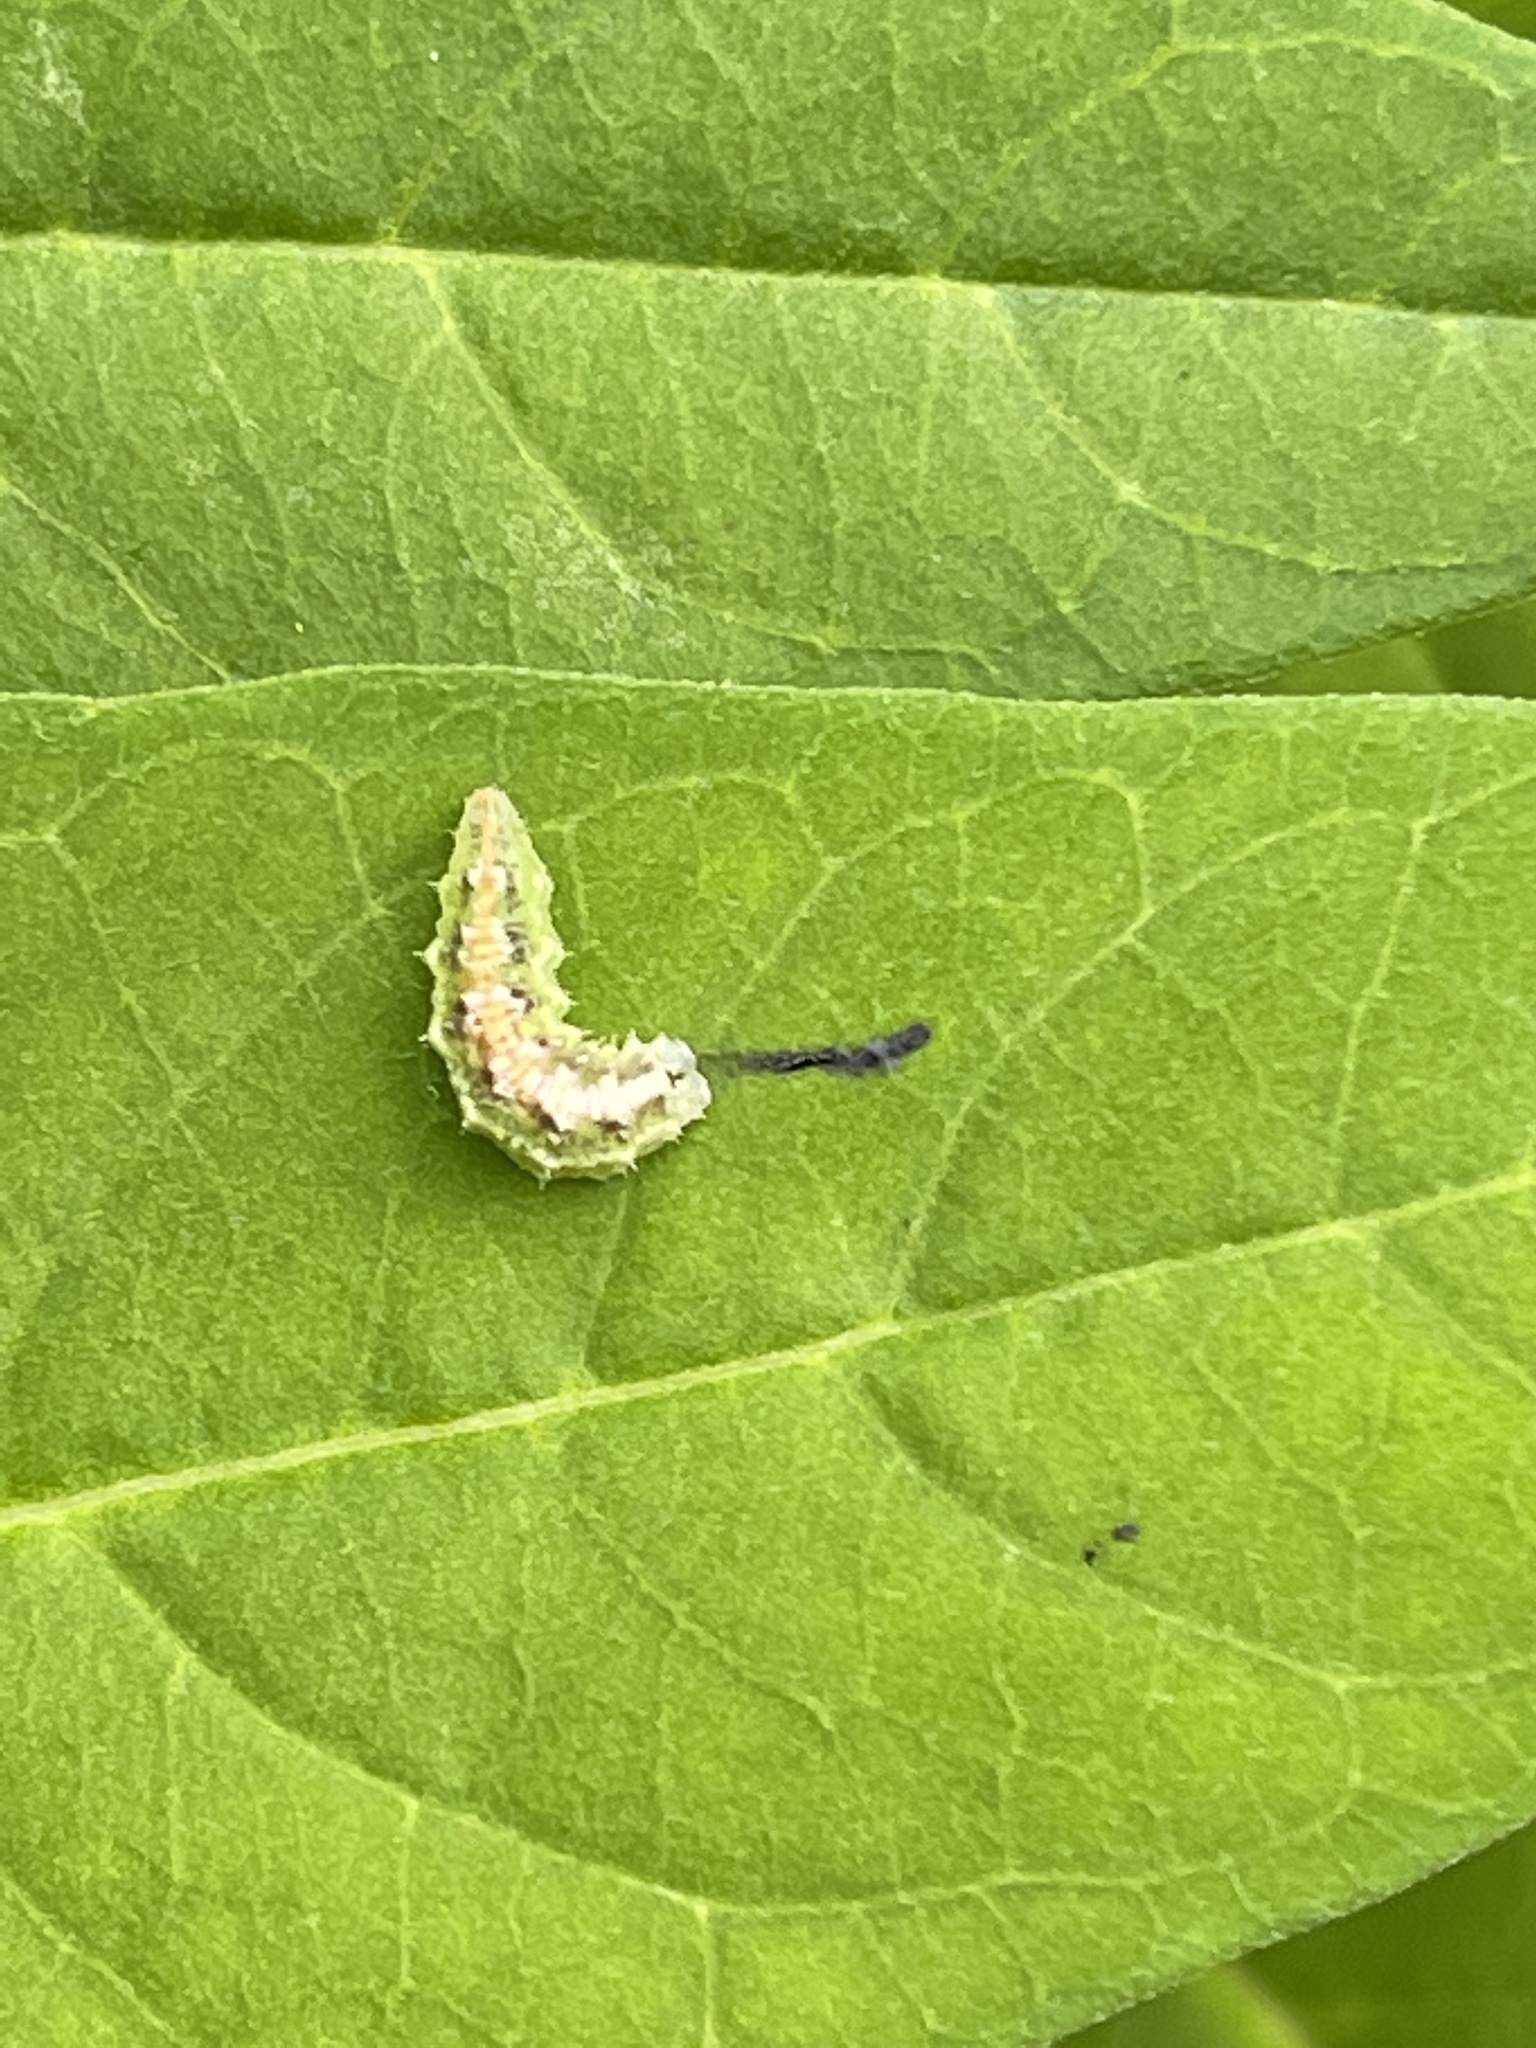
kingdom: Animalia
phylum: Arthropoda
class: Insecta
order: Diptera
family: Syrphidae
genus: Dioprosopa
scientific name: Dioprosopa clavatus
